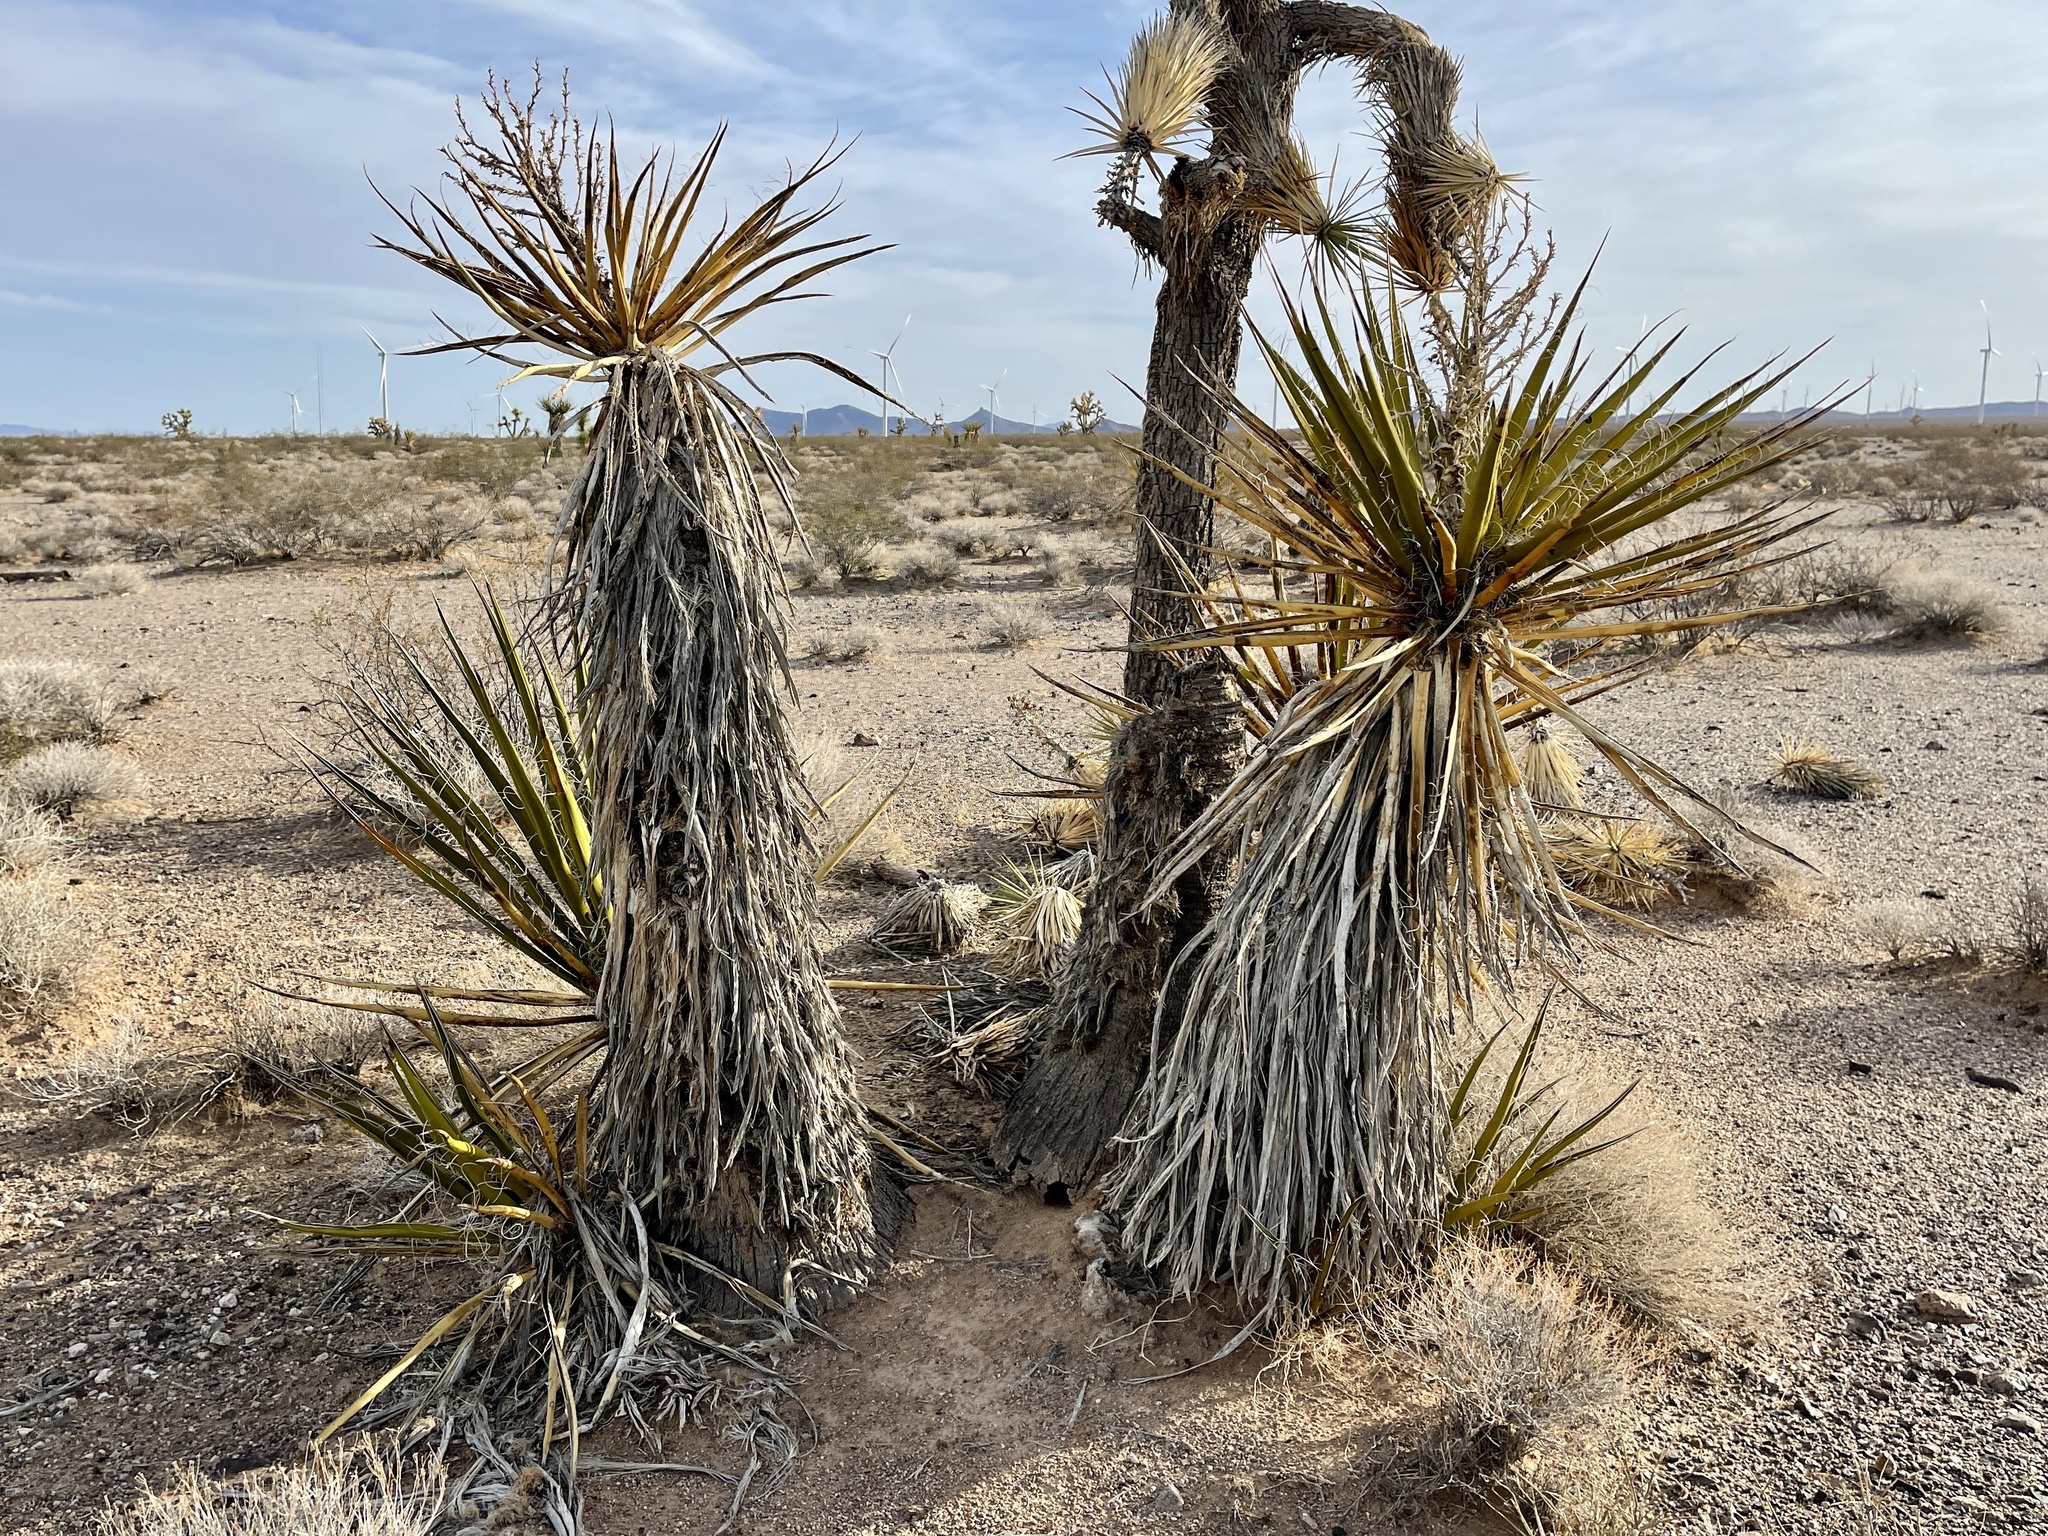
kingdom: Plantae
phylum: Tracheophyta
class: Liliopsida
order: Asparagales
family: Asparagaceae
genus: Yucca
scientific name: Yucca schidigera
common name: Mojave yucca
